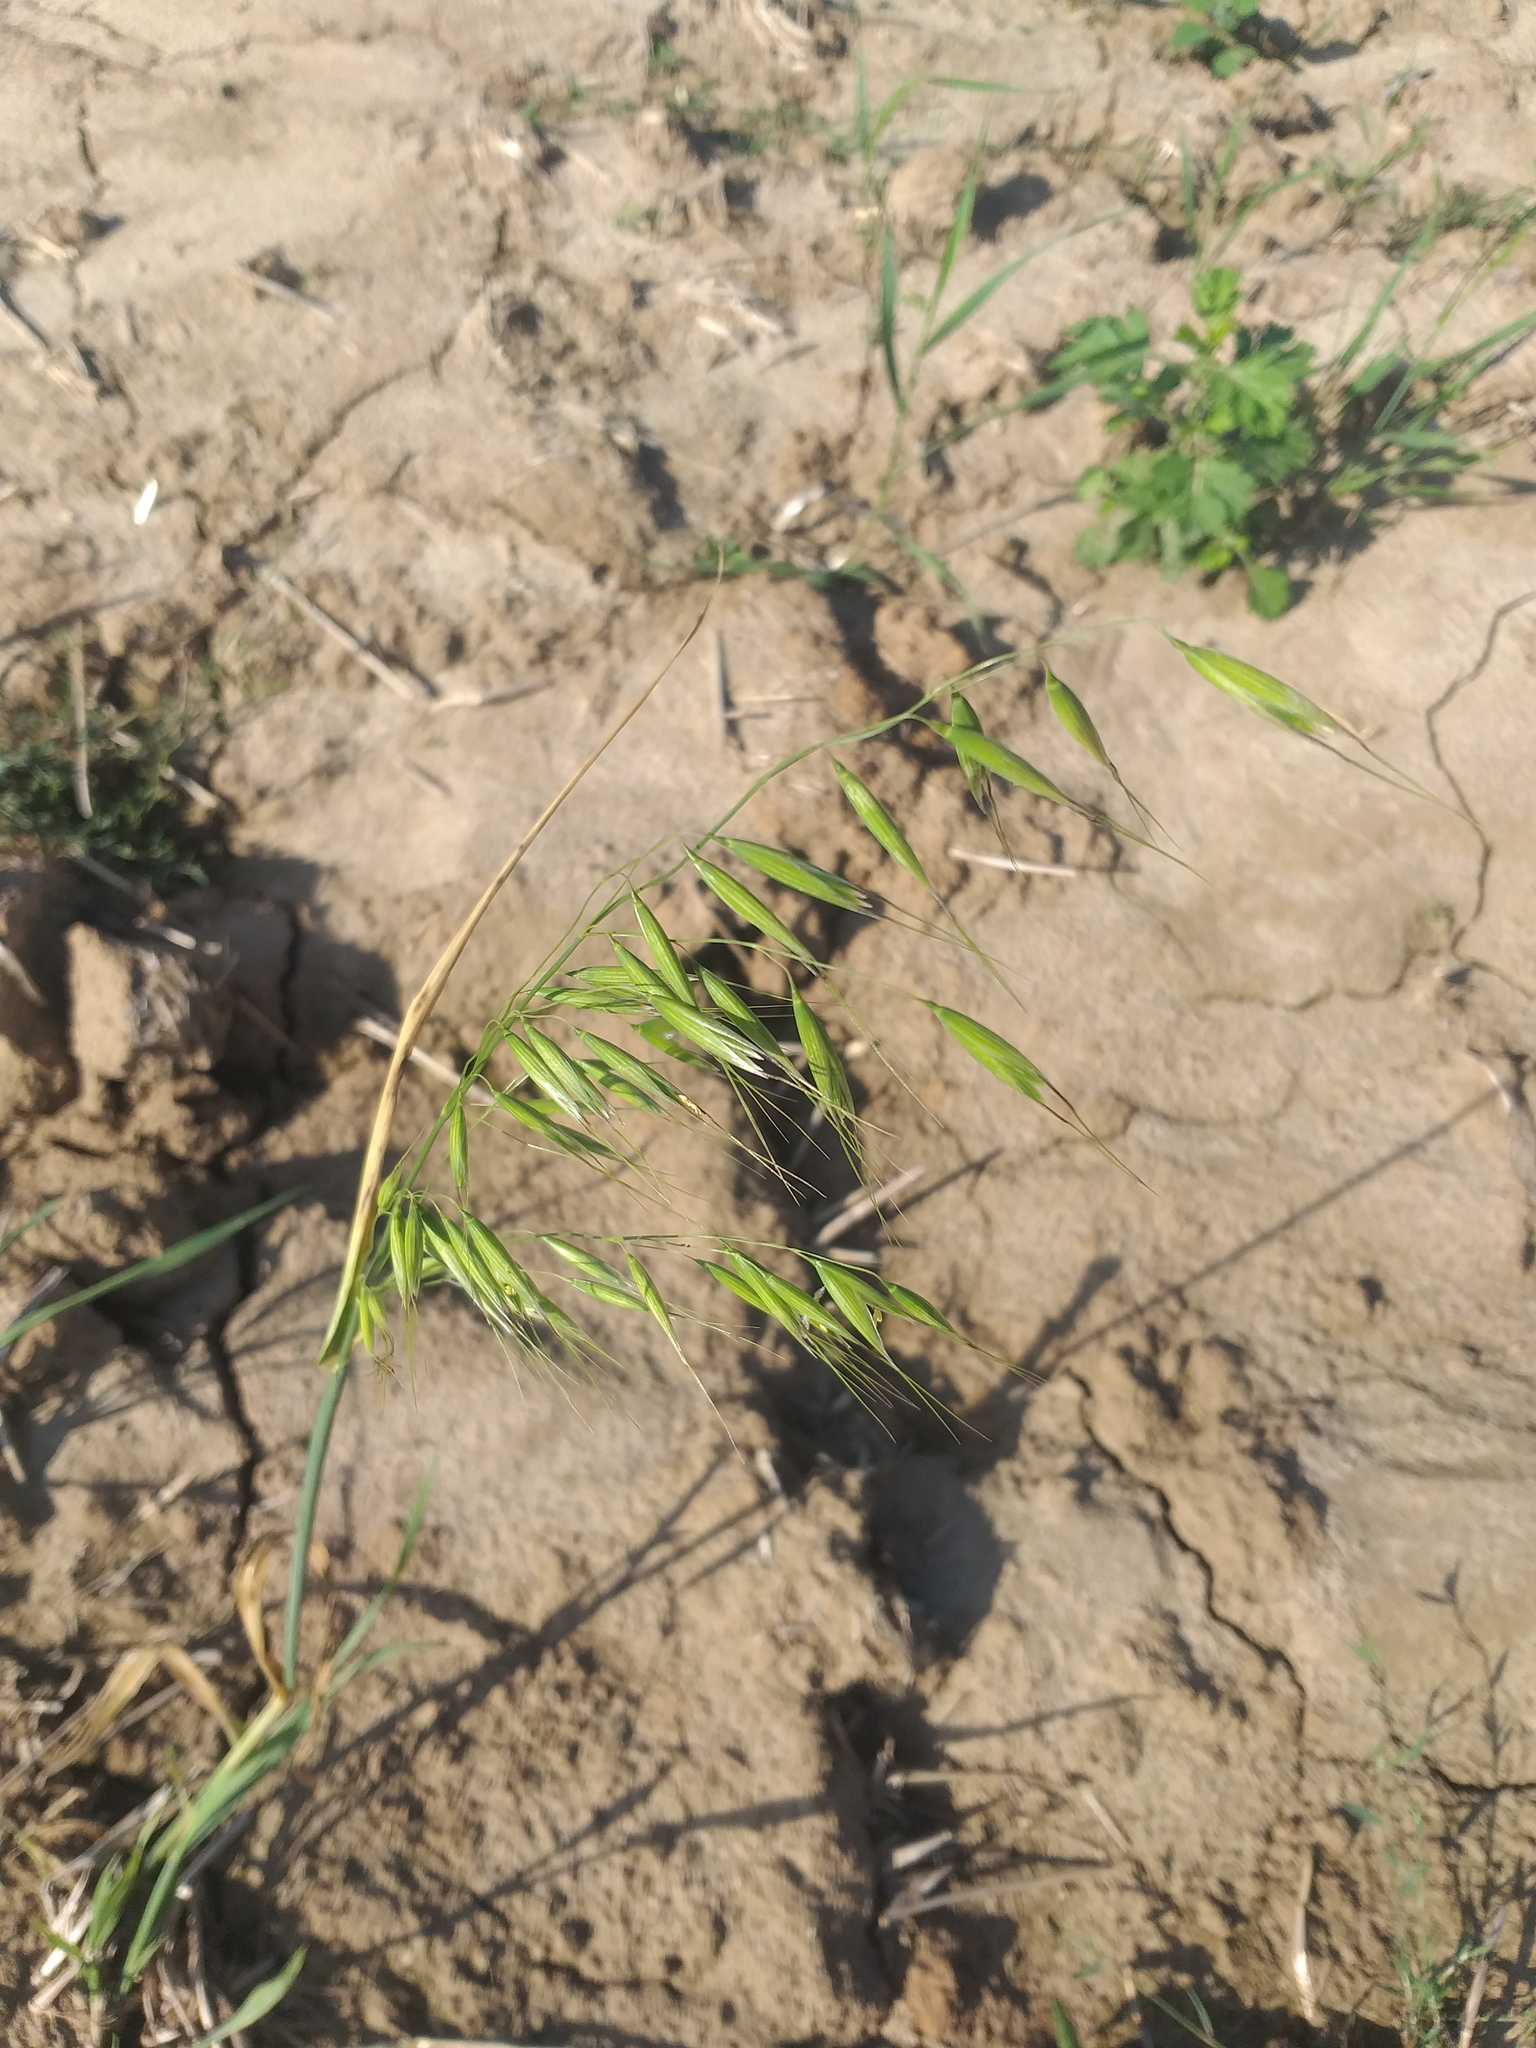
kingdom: Plantae
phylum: Tracheophyta
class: Liliopsida
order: Poales
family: Poaceae
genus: Avena
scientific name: Avena fatua
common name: Wild oat
